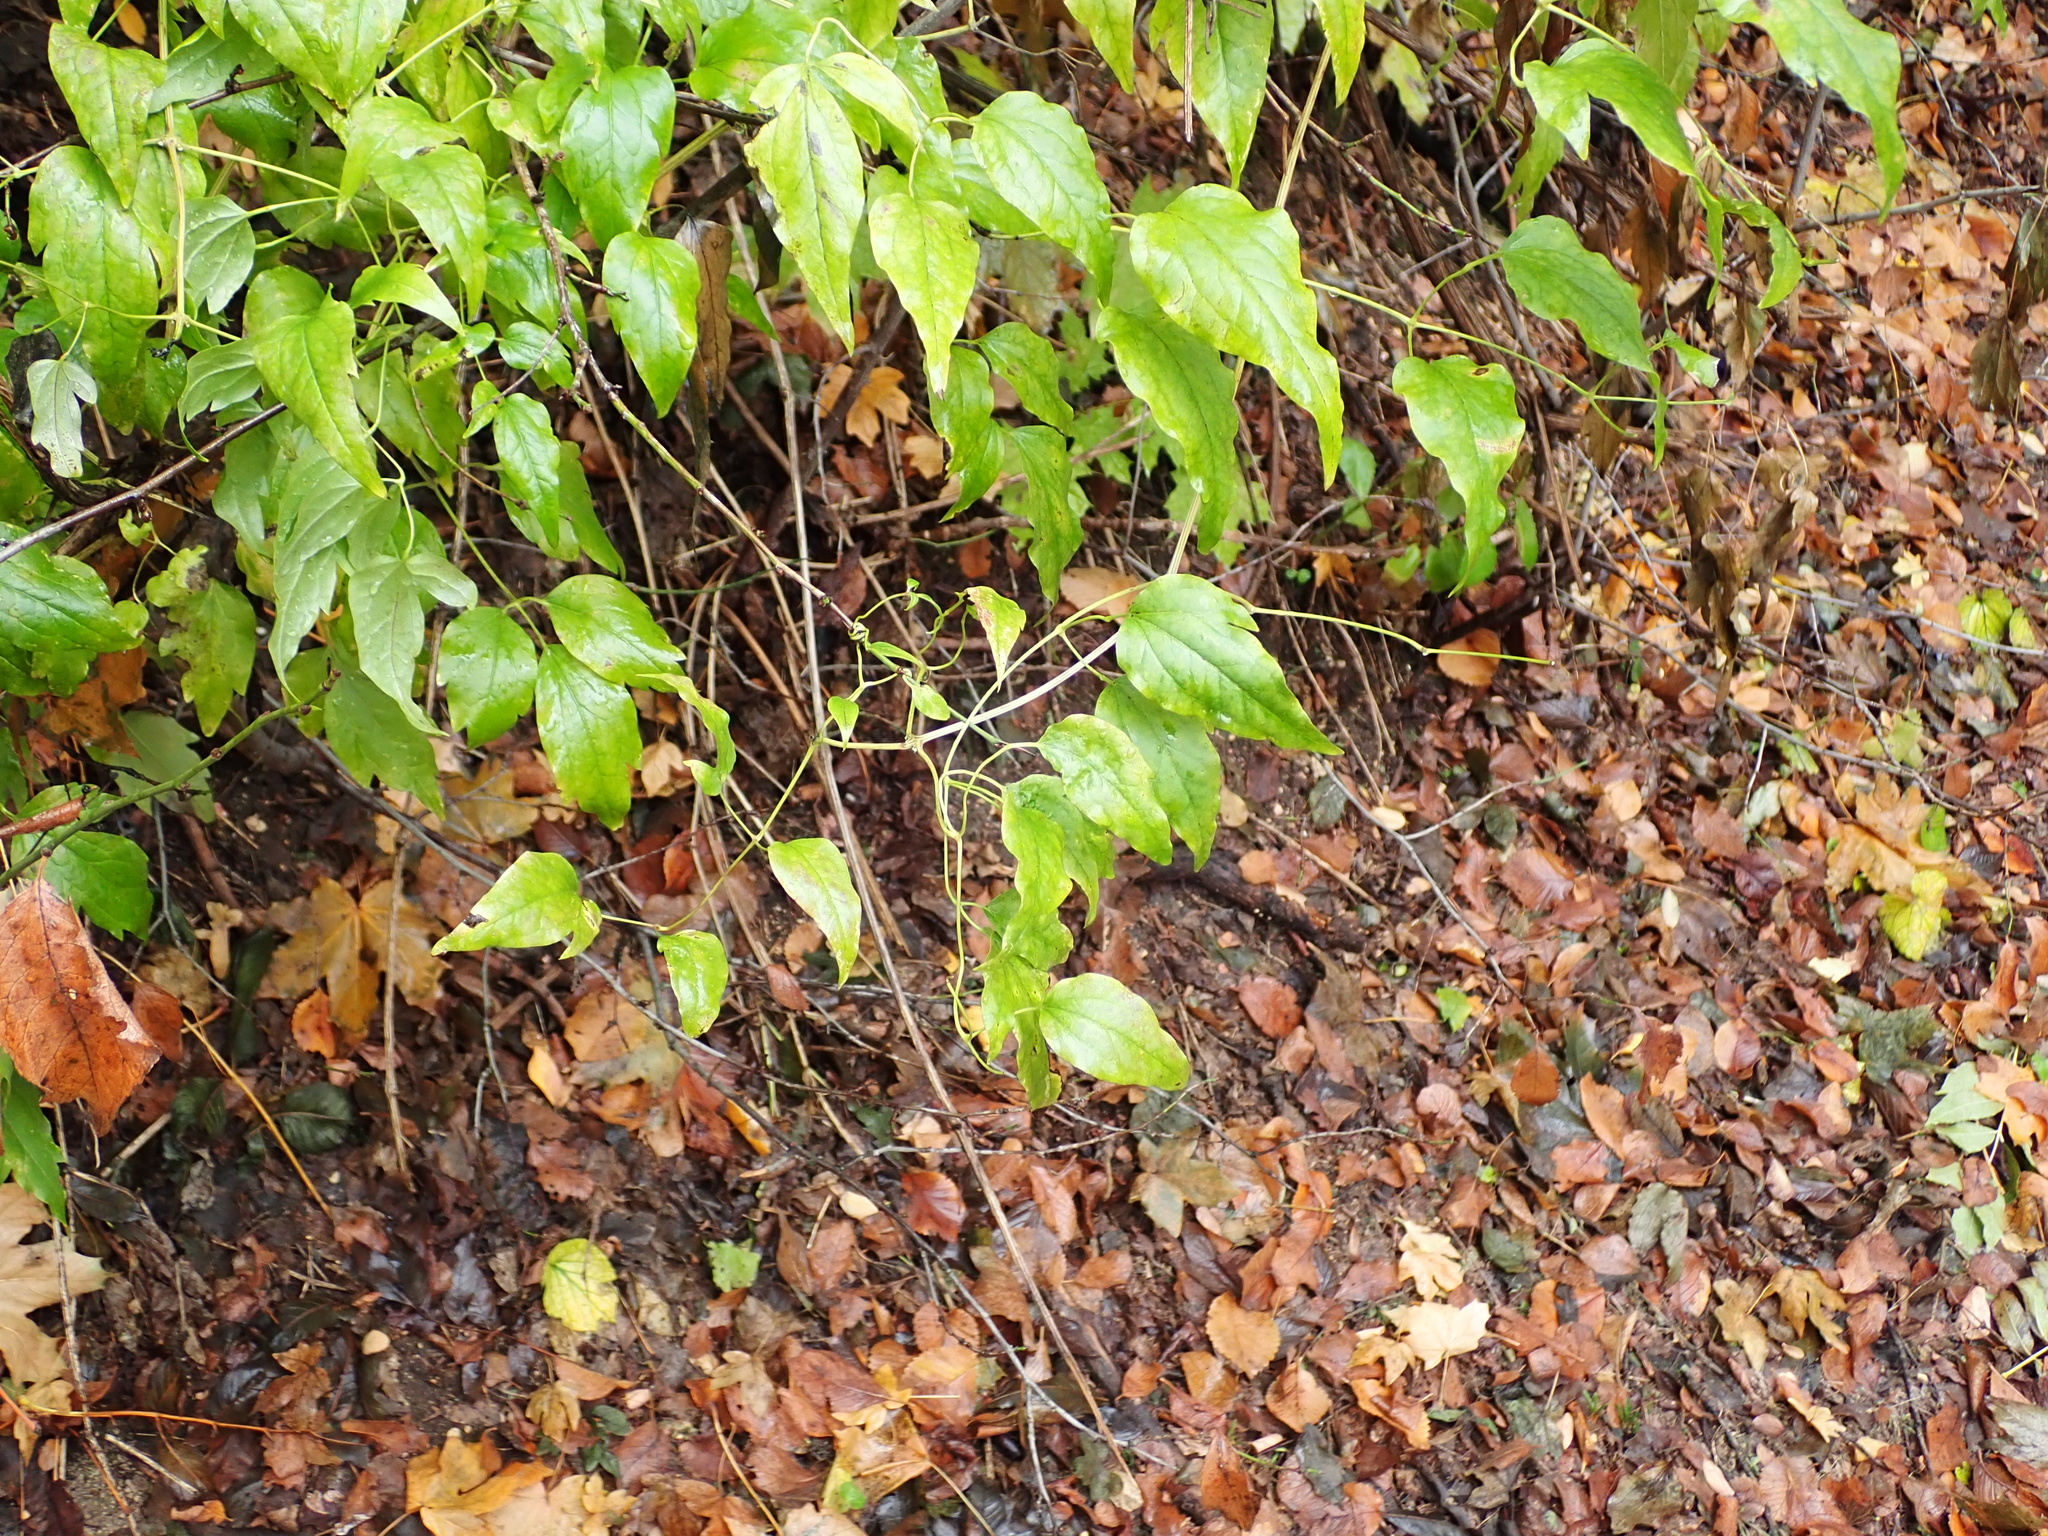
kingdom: Plantae
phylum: Tracheophyta
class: Magnoliopsida
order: Ranunculales
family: Ranunculaceae
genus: Clematis
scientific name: Clematis vitalba
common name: Evergreen clematis
